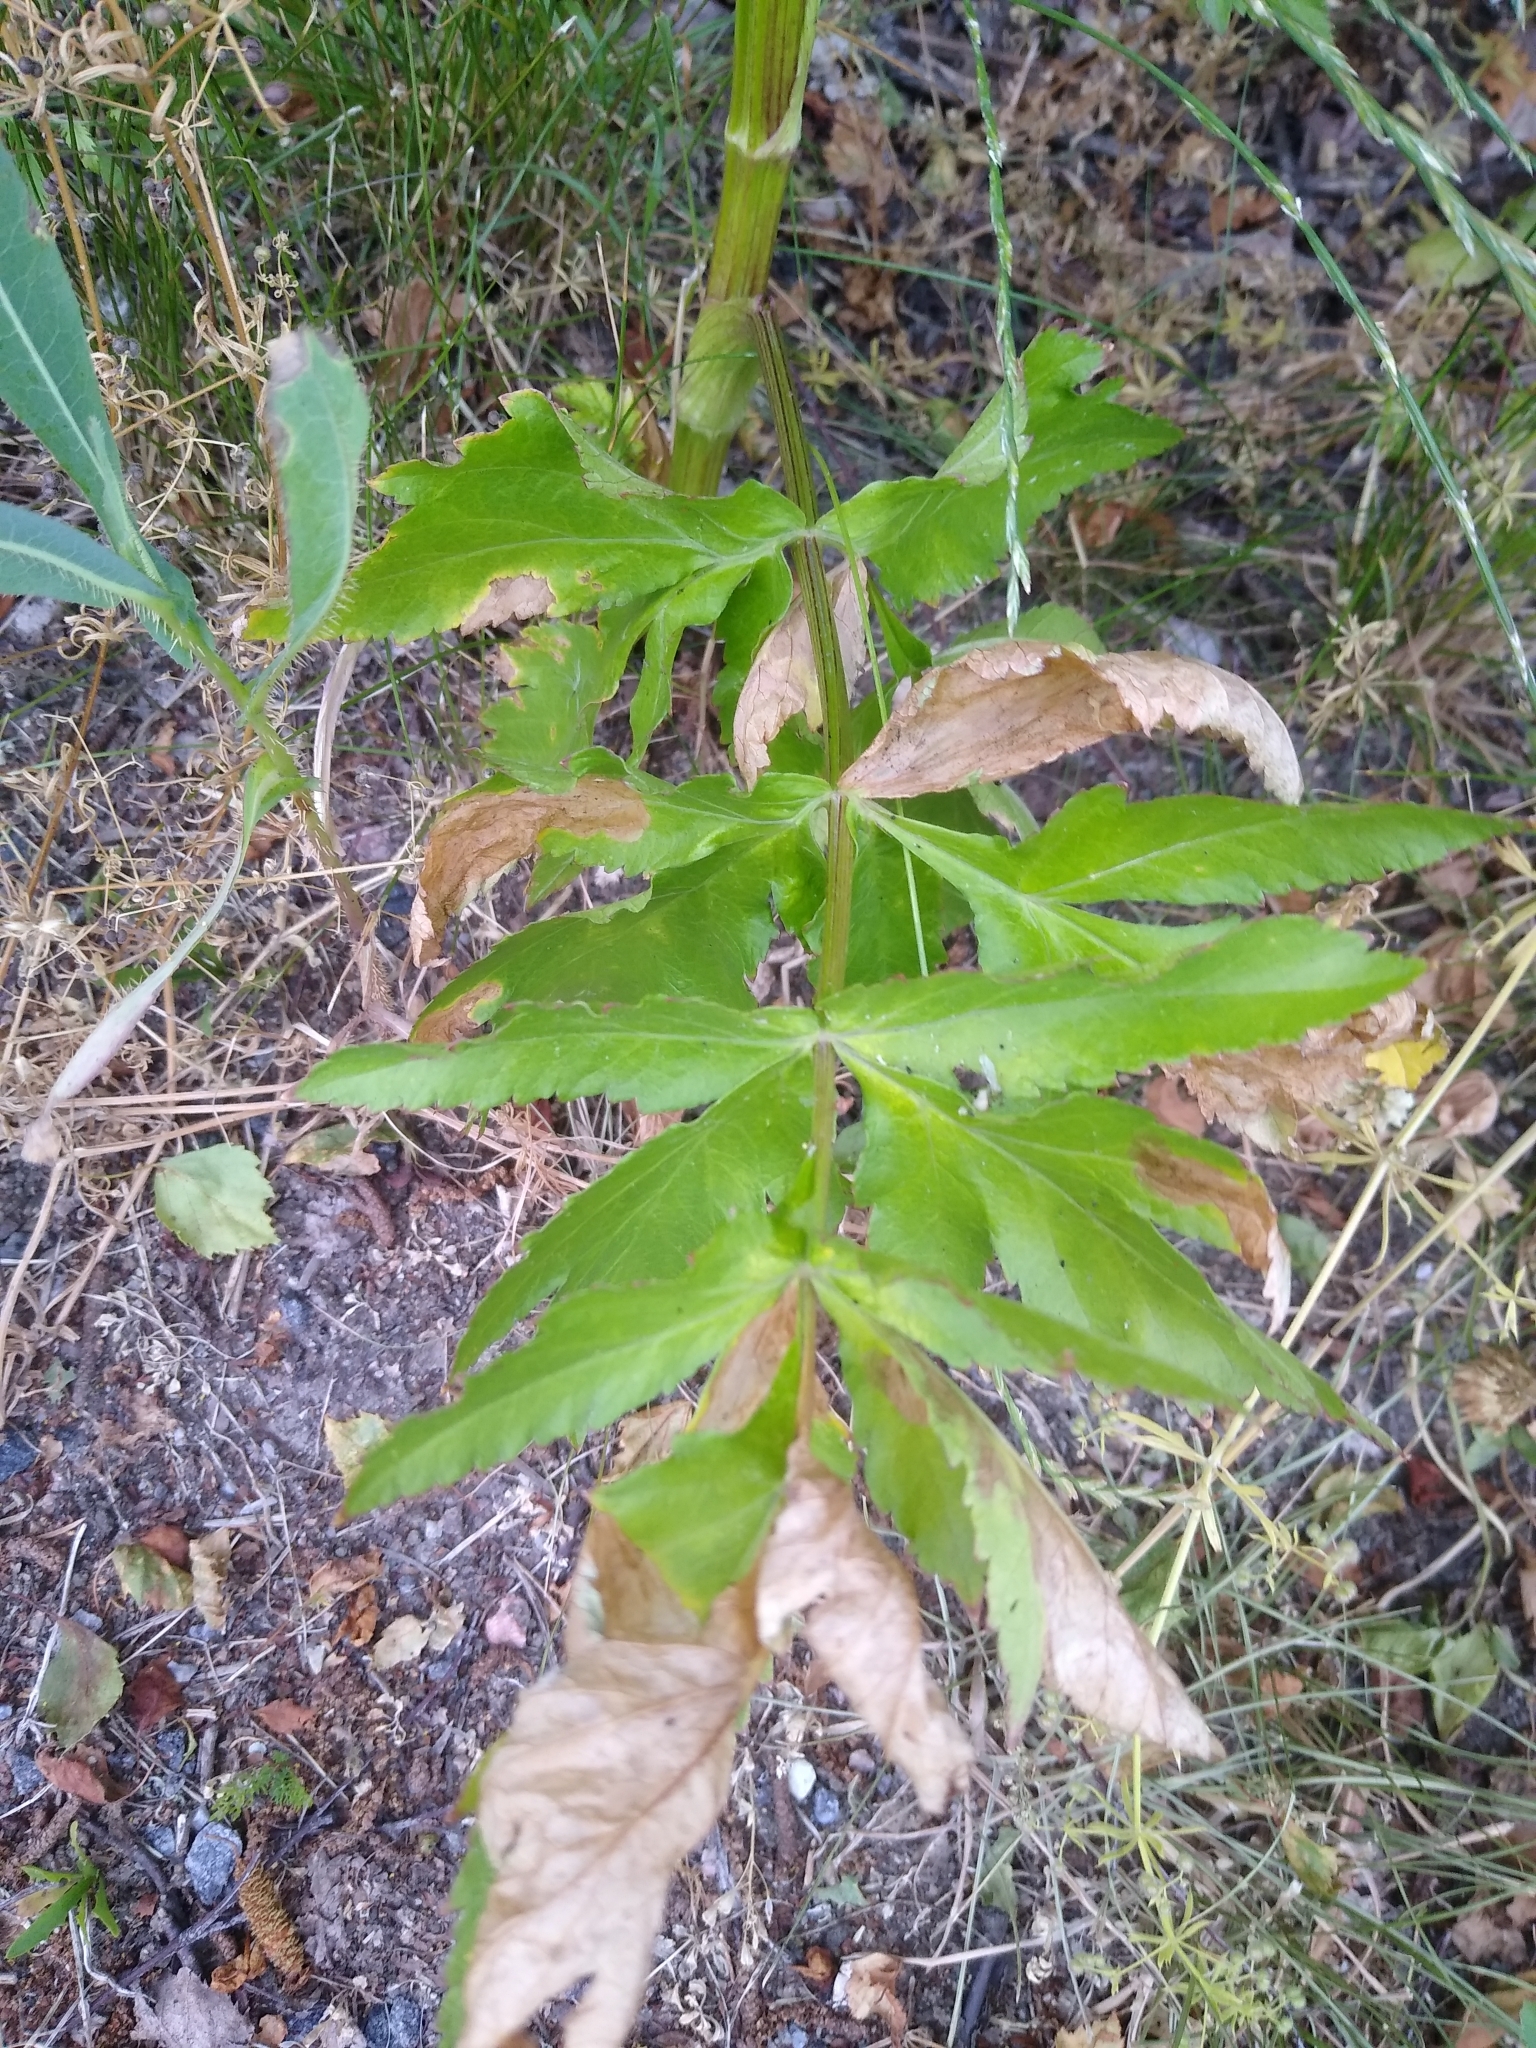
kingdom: Plantae
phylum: Tracheophyta
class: Magnoliopsida
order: Apiales
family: Apiaceae
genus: Pastinaca
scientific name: Pastinaca sativa
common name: Wild parsnip
